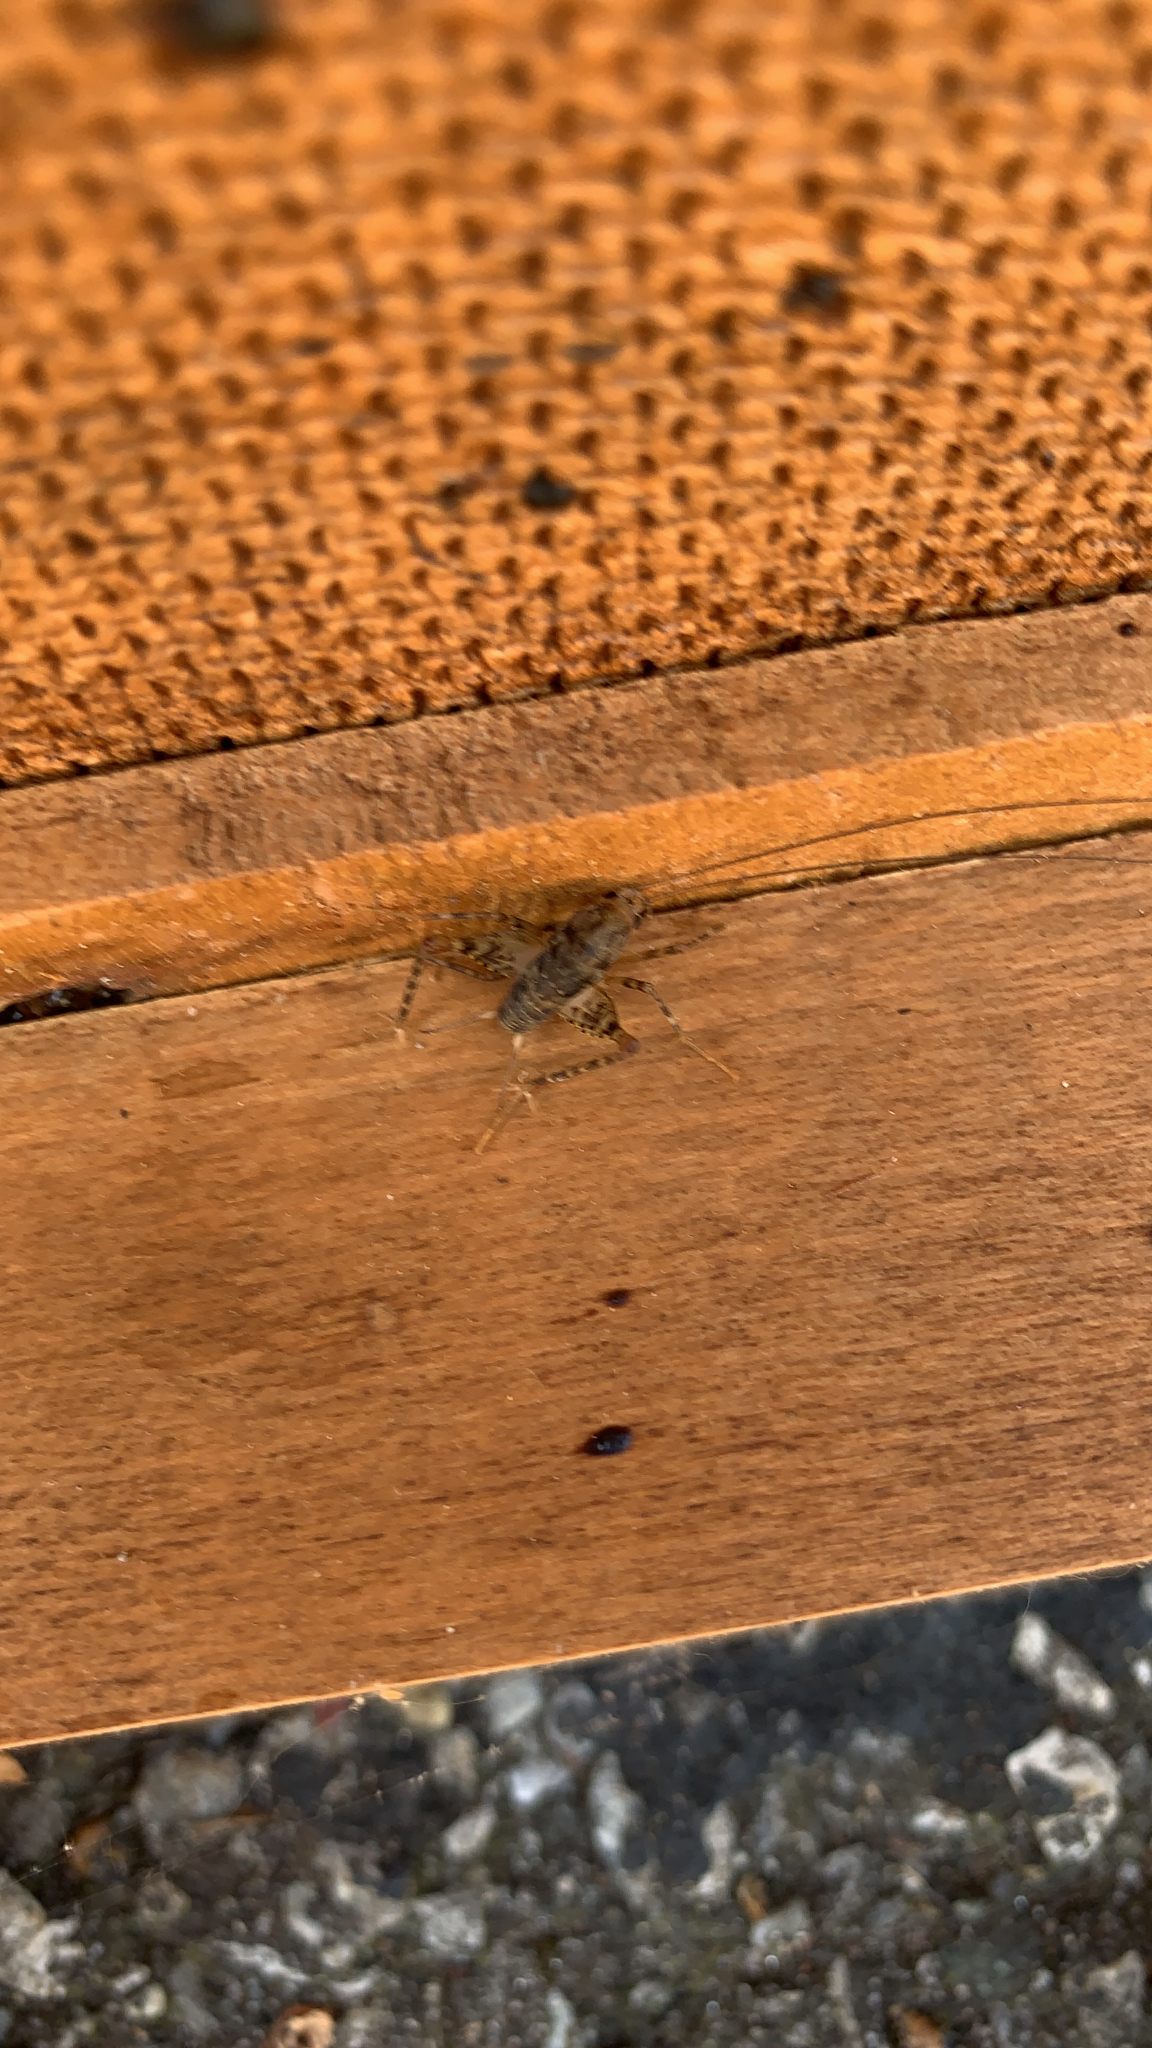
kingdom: Animalia
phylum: Arthropoda
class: Insecta
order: Orthoptera
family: Rhaphidophoridae
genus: Tachycines
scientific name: Tachycines asynamorus
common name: Greenhouse camel cricket
